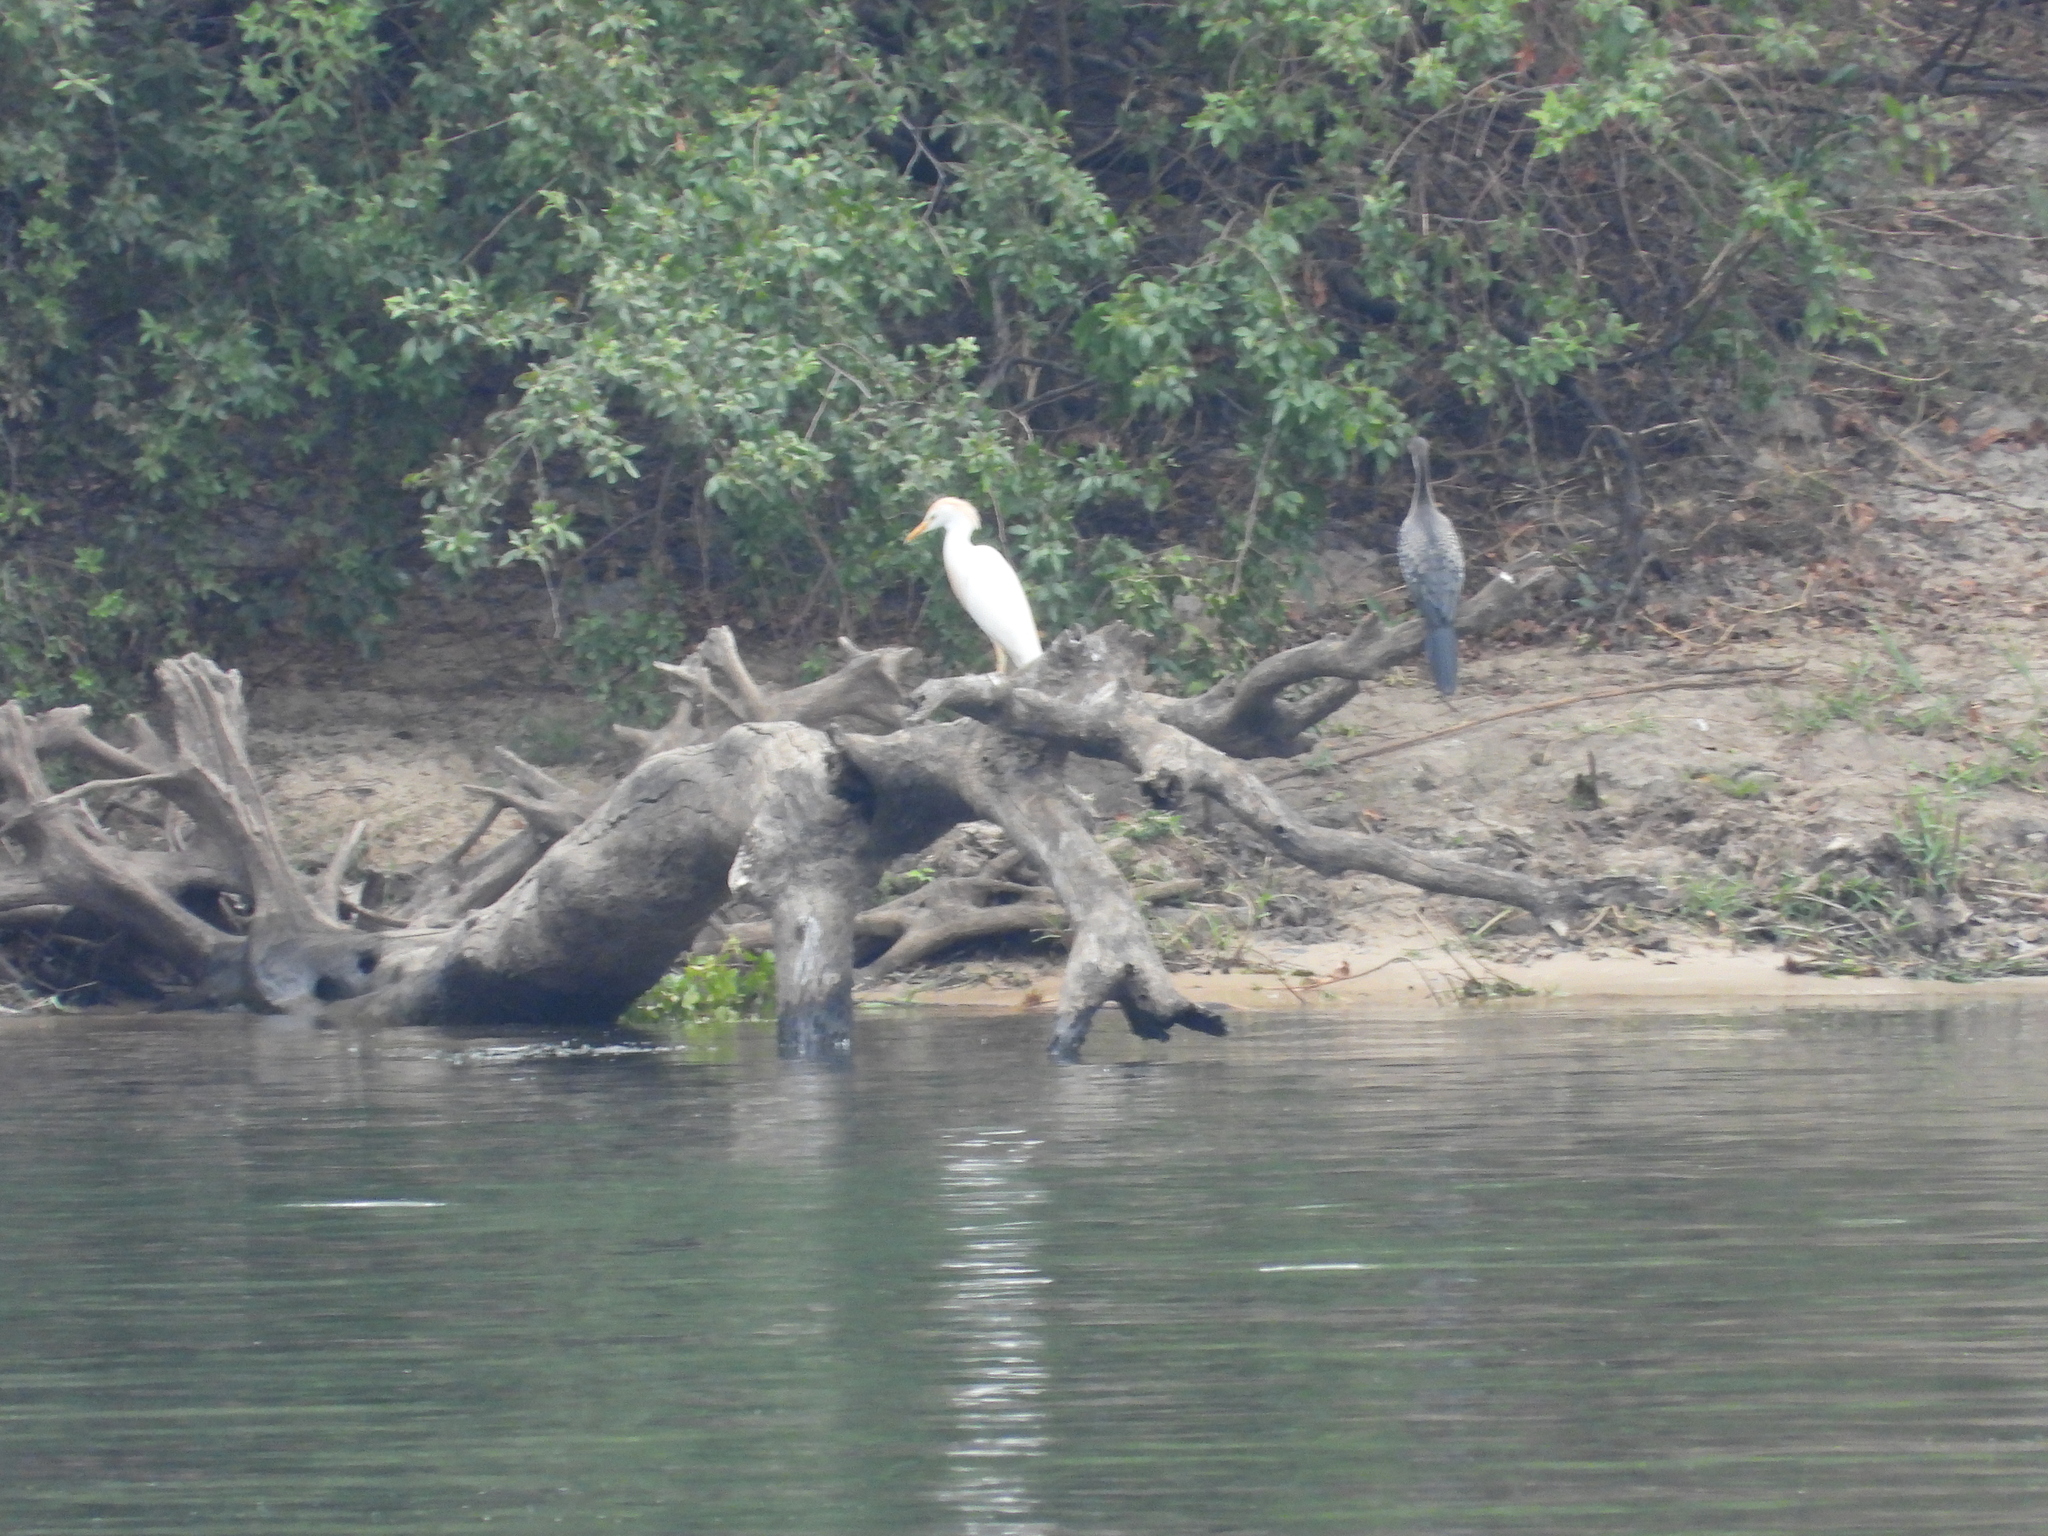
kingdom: Animalia
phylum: Chordata
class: Aves
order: Pelecaniformes
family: Ardeidae
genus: Bubulcus
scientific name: Bubulcus ibis
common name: Cattle egret
